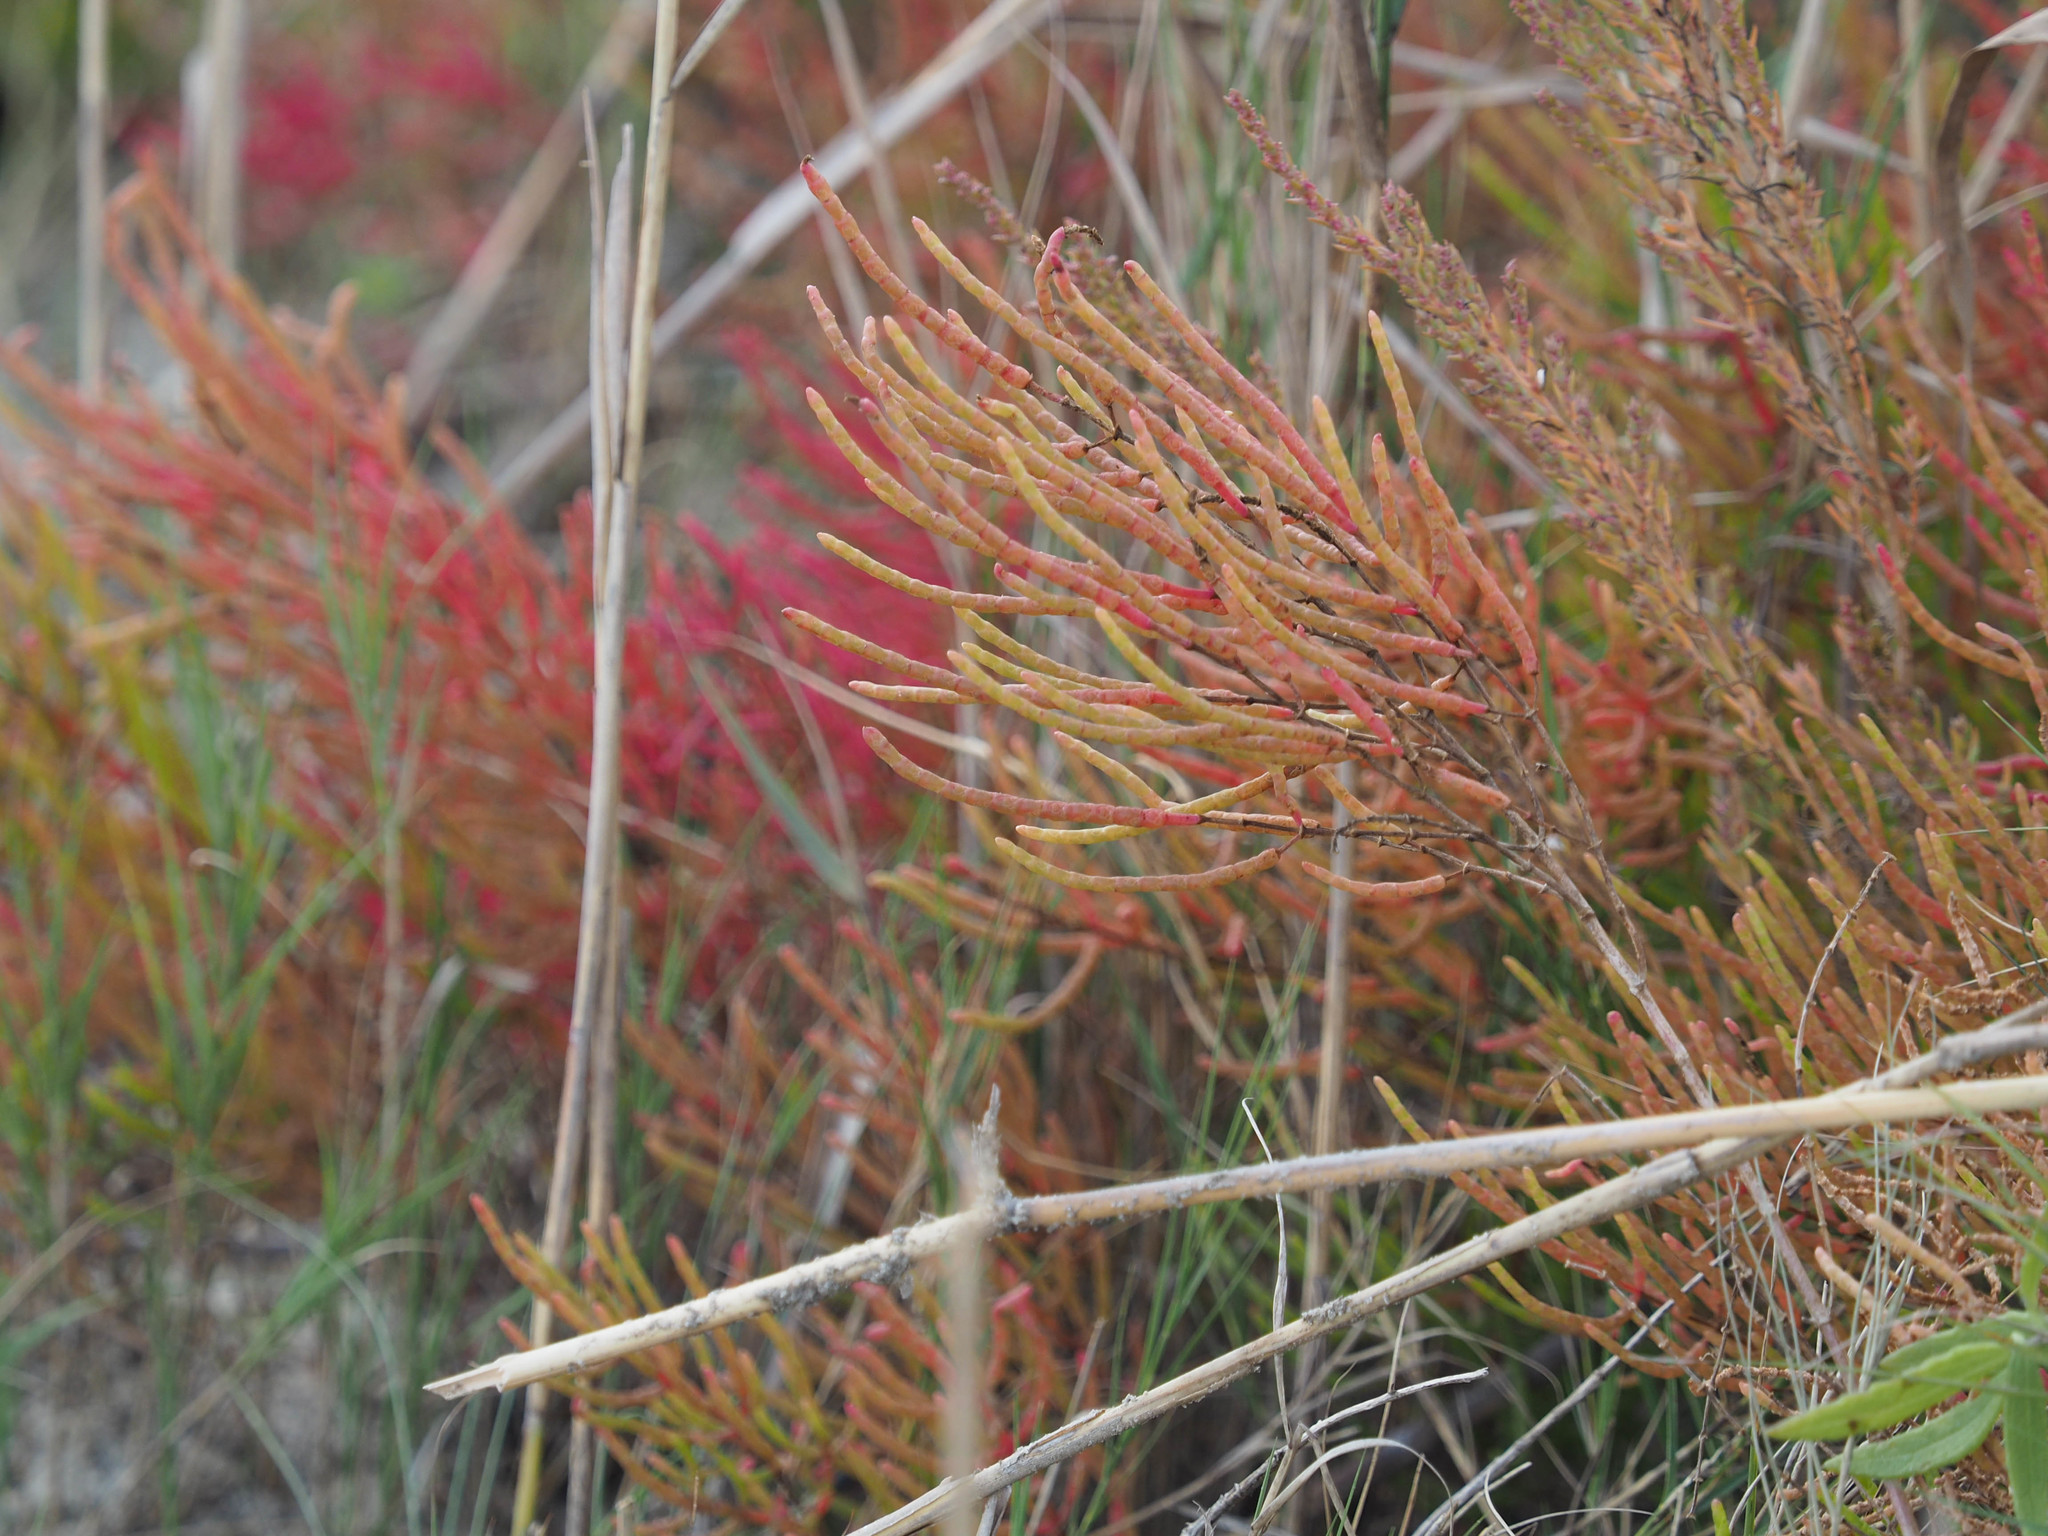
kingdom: Plantae
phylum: Tracheophyta
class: Magnoliopsida
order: Caryophyllales
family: Amaranthaceae
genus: Salicornia
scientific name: Salicornia virginica
